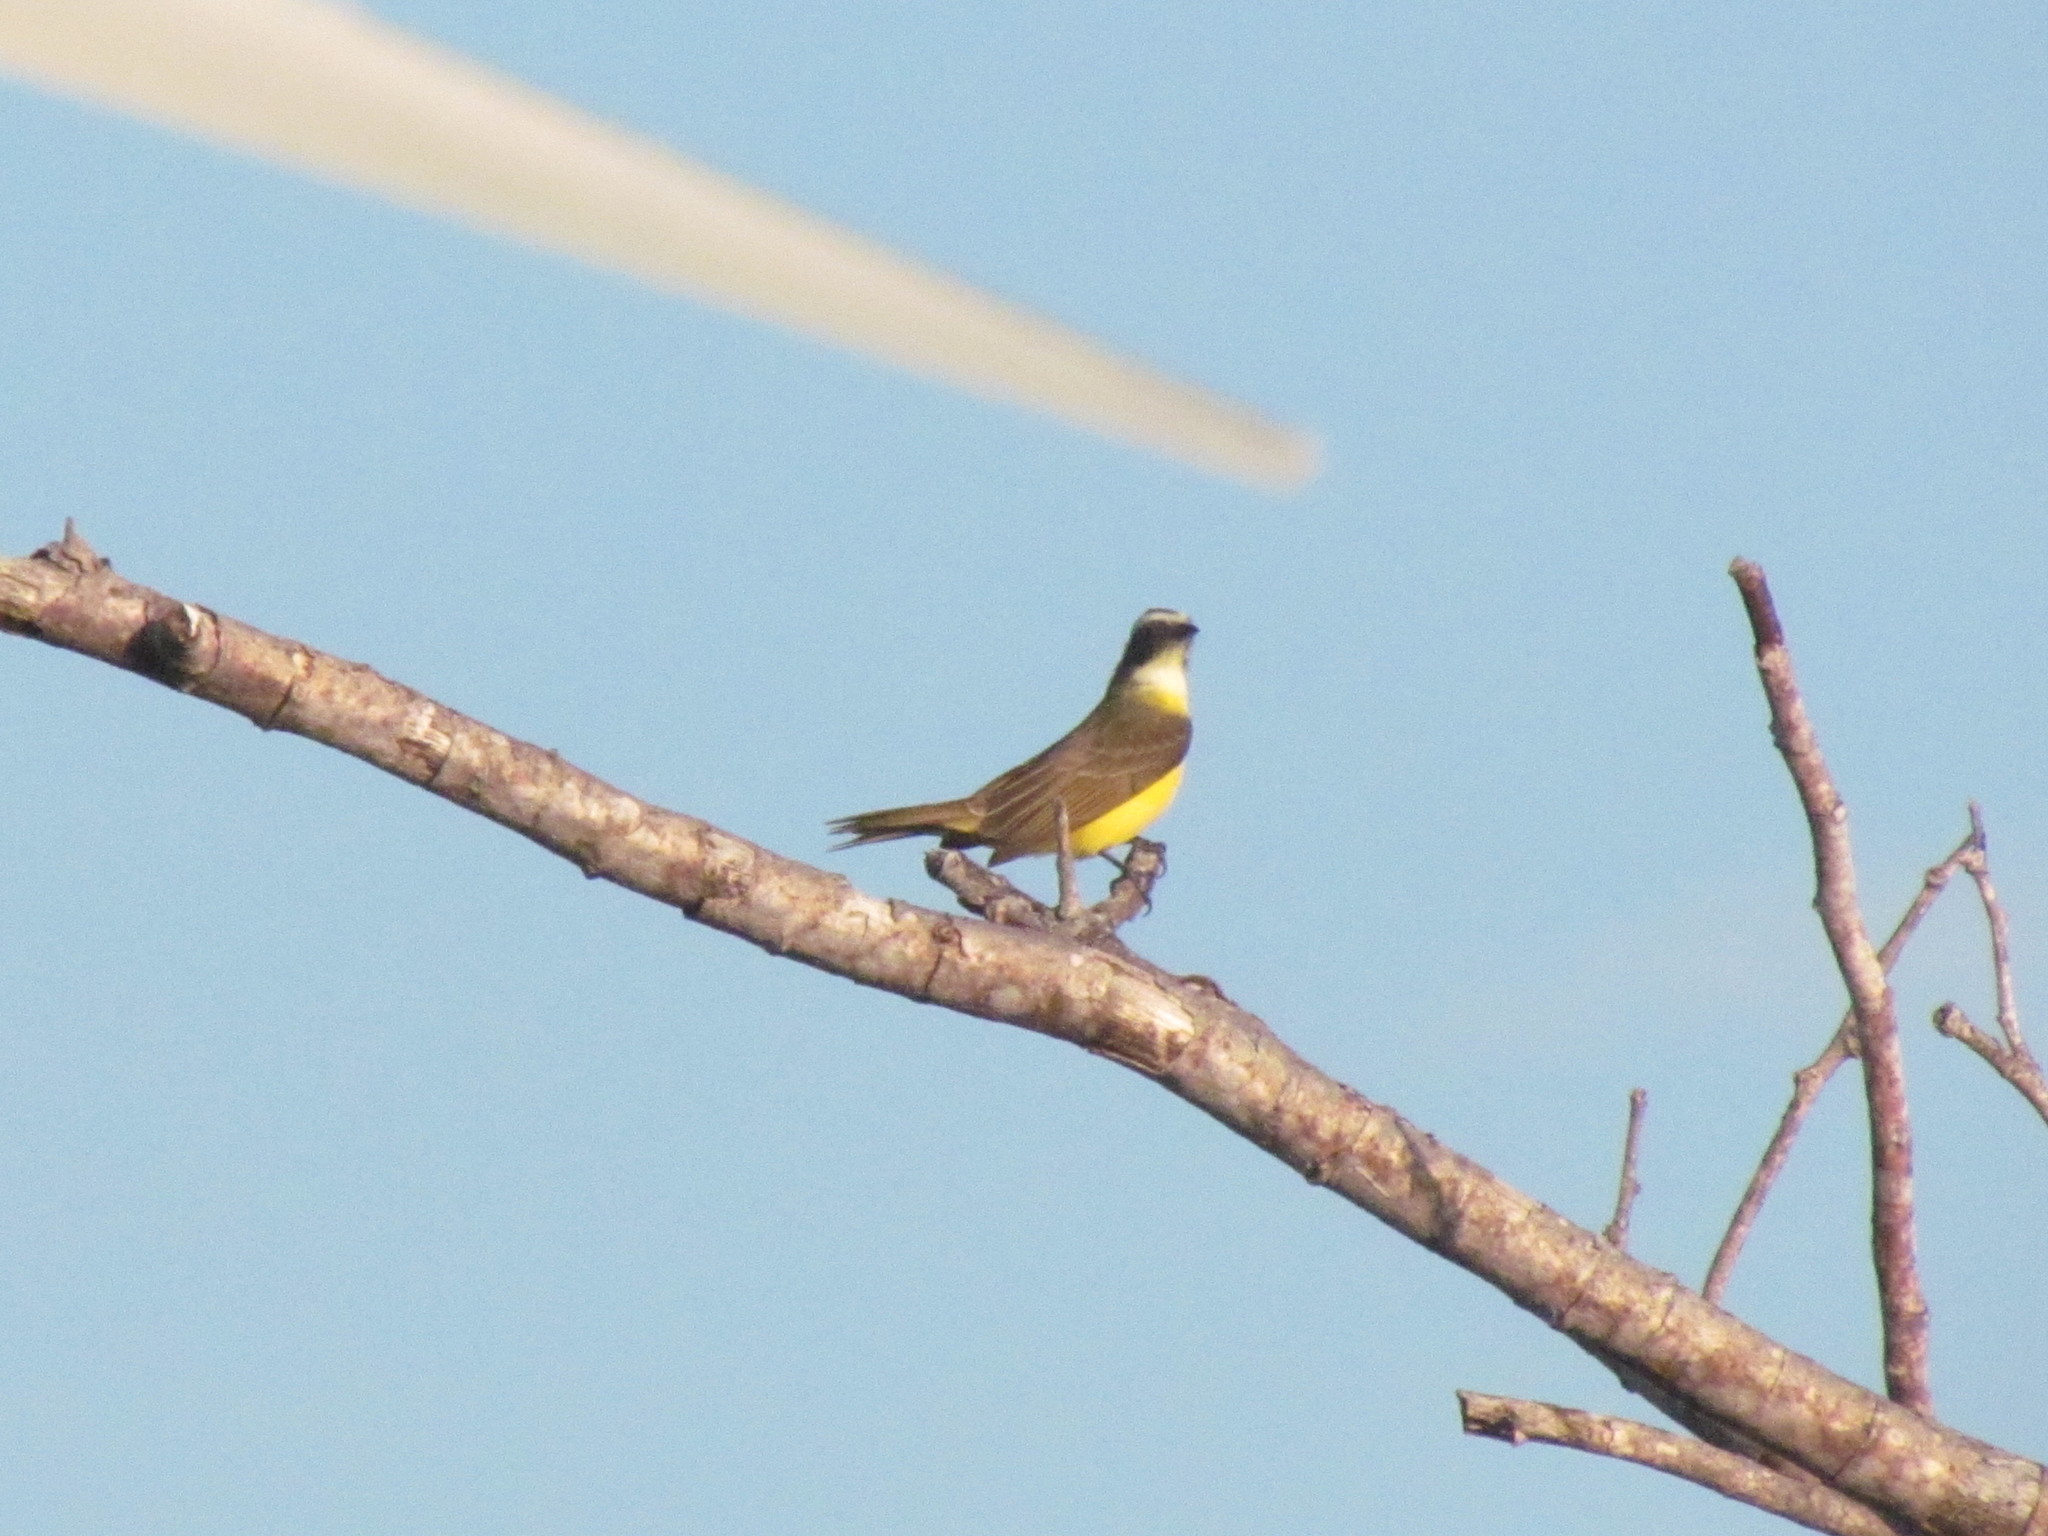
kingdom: Animalia
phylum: Chordata
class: Aves
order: Passeriformes
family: Tyrannidae
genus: Myiozetetes
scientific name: Myiozetetes similis
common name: Social flycatcher
